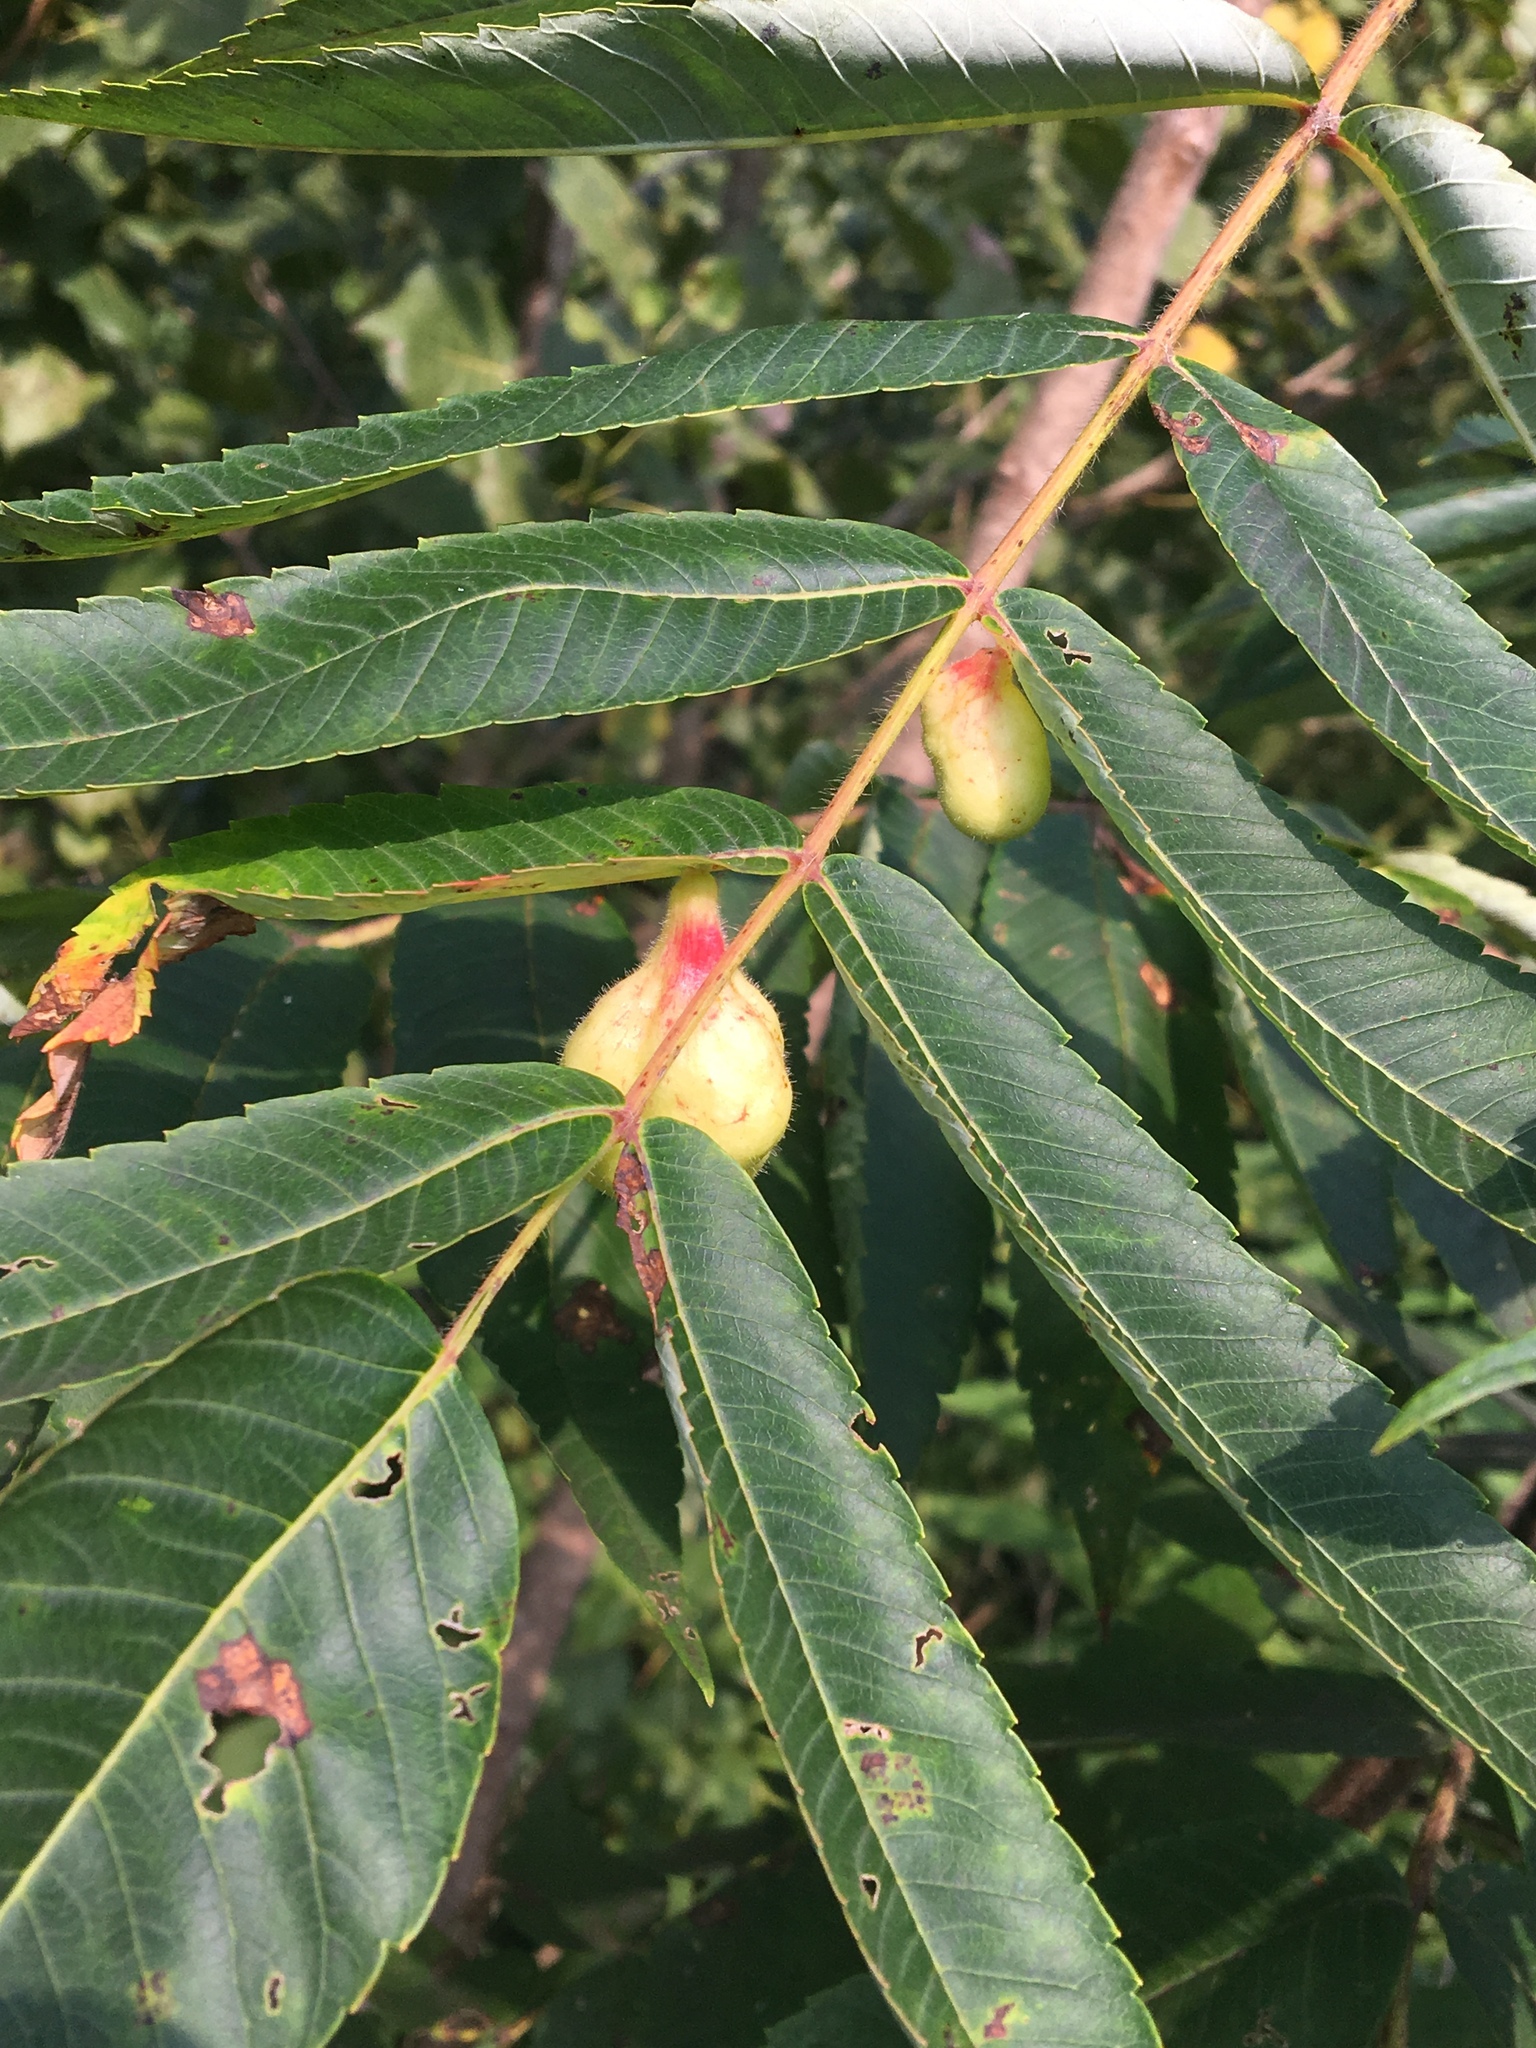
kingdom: Plantae
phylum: Tracheophyta
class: Magnoliopsida
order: Sapindales
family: Anacardiaceae
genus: Rhus
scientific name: Rhus typhina
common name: Staghorn sumac
